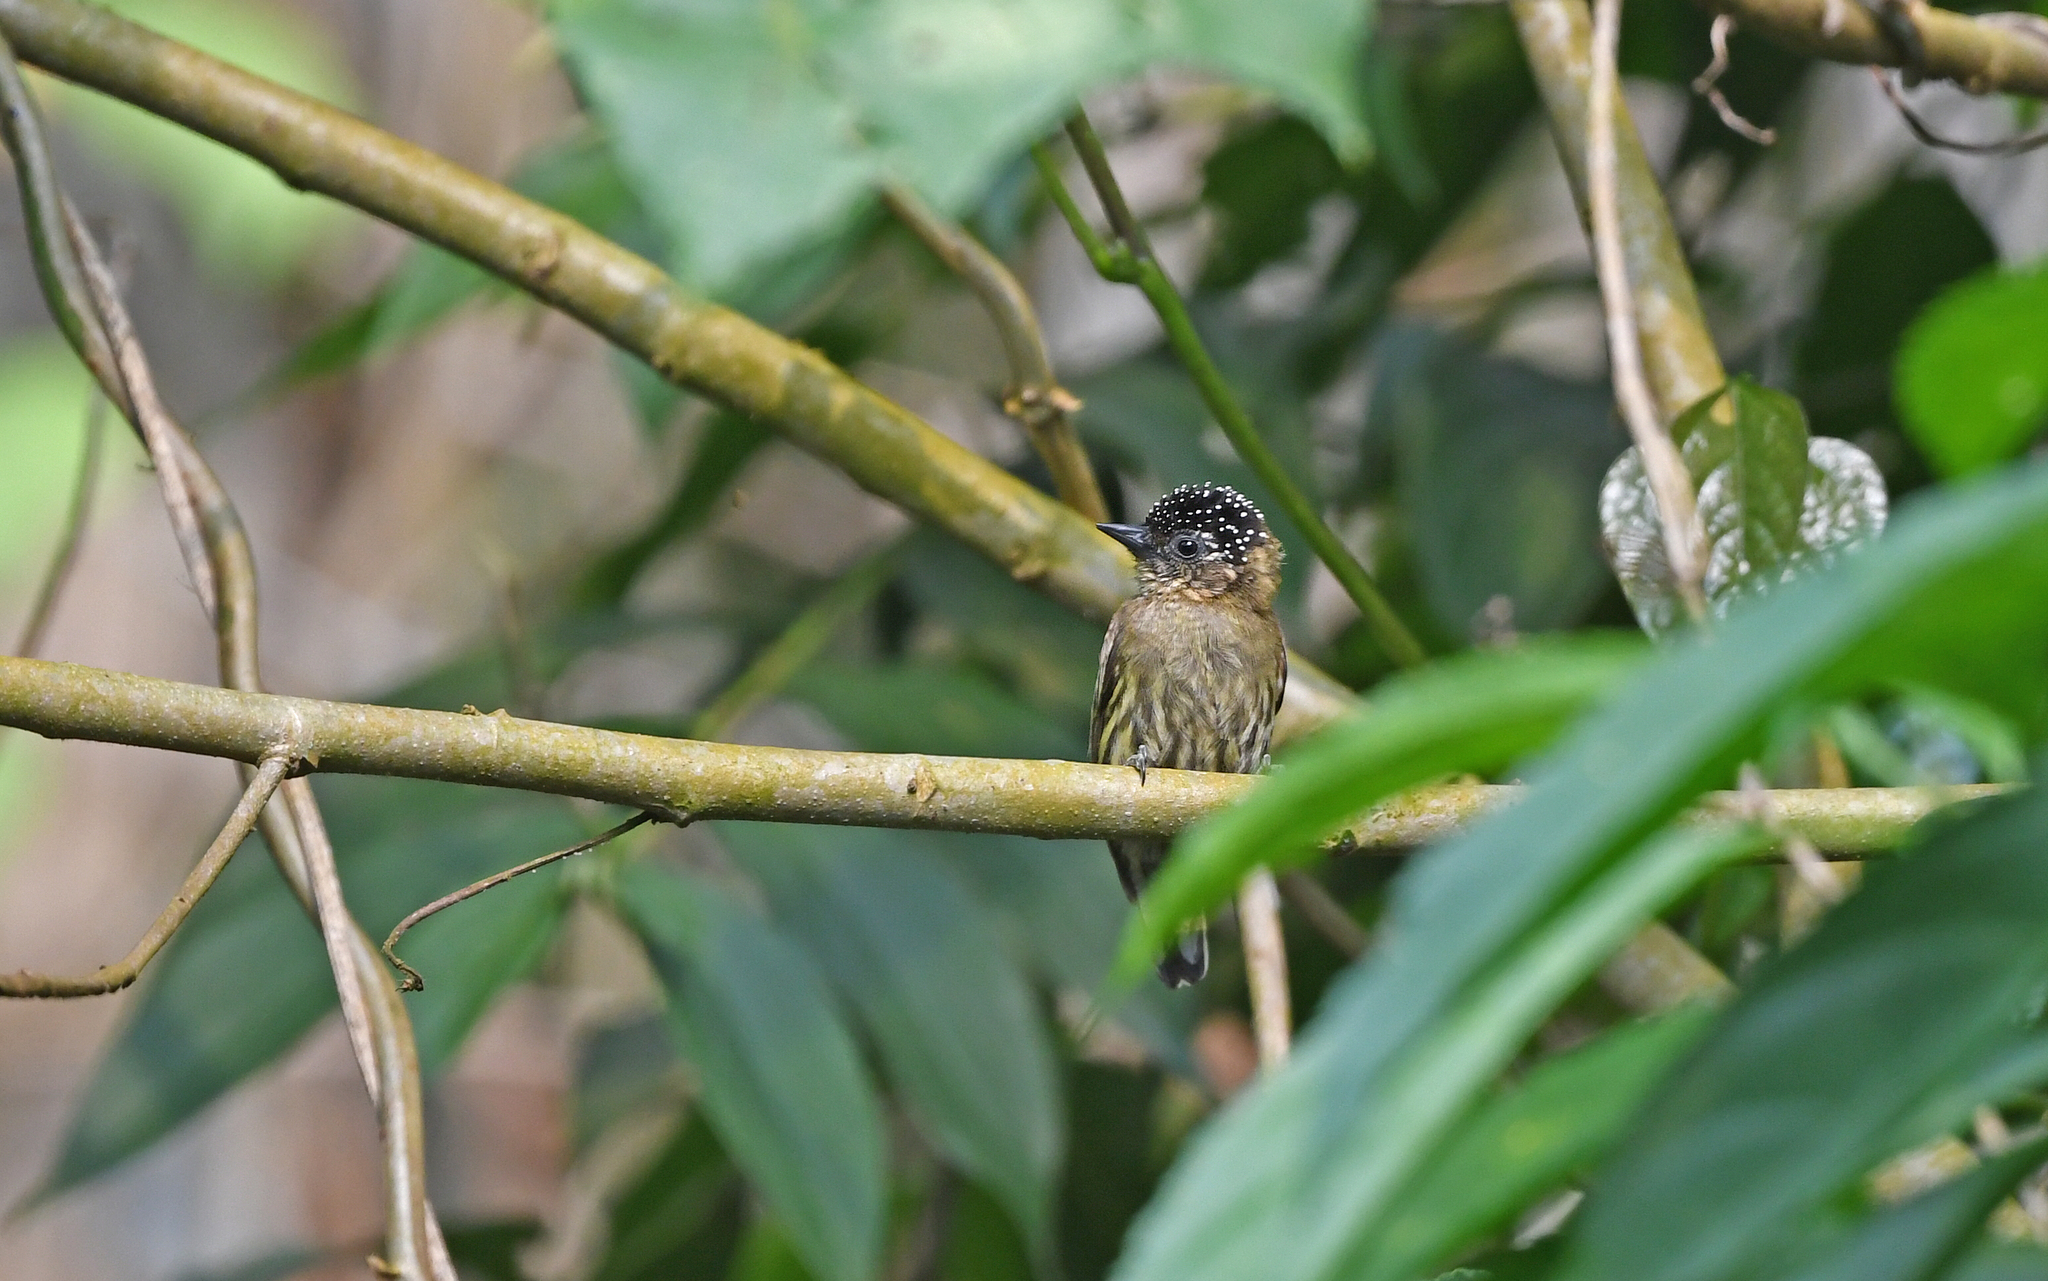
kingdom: Animalia
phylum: Chordata
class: Aves
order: Piciformes
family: Picidae
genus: Picumnus
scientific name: Picumnus olivaceus
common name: Olivaceous piculet
